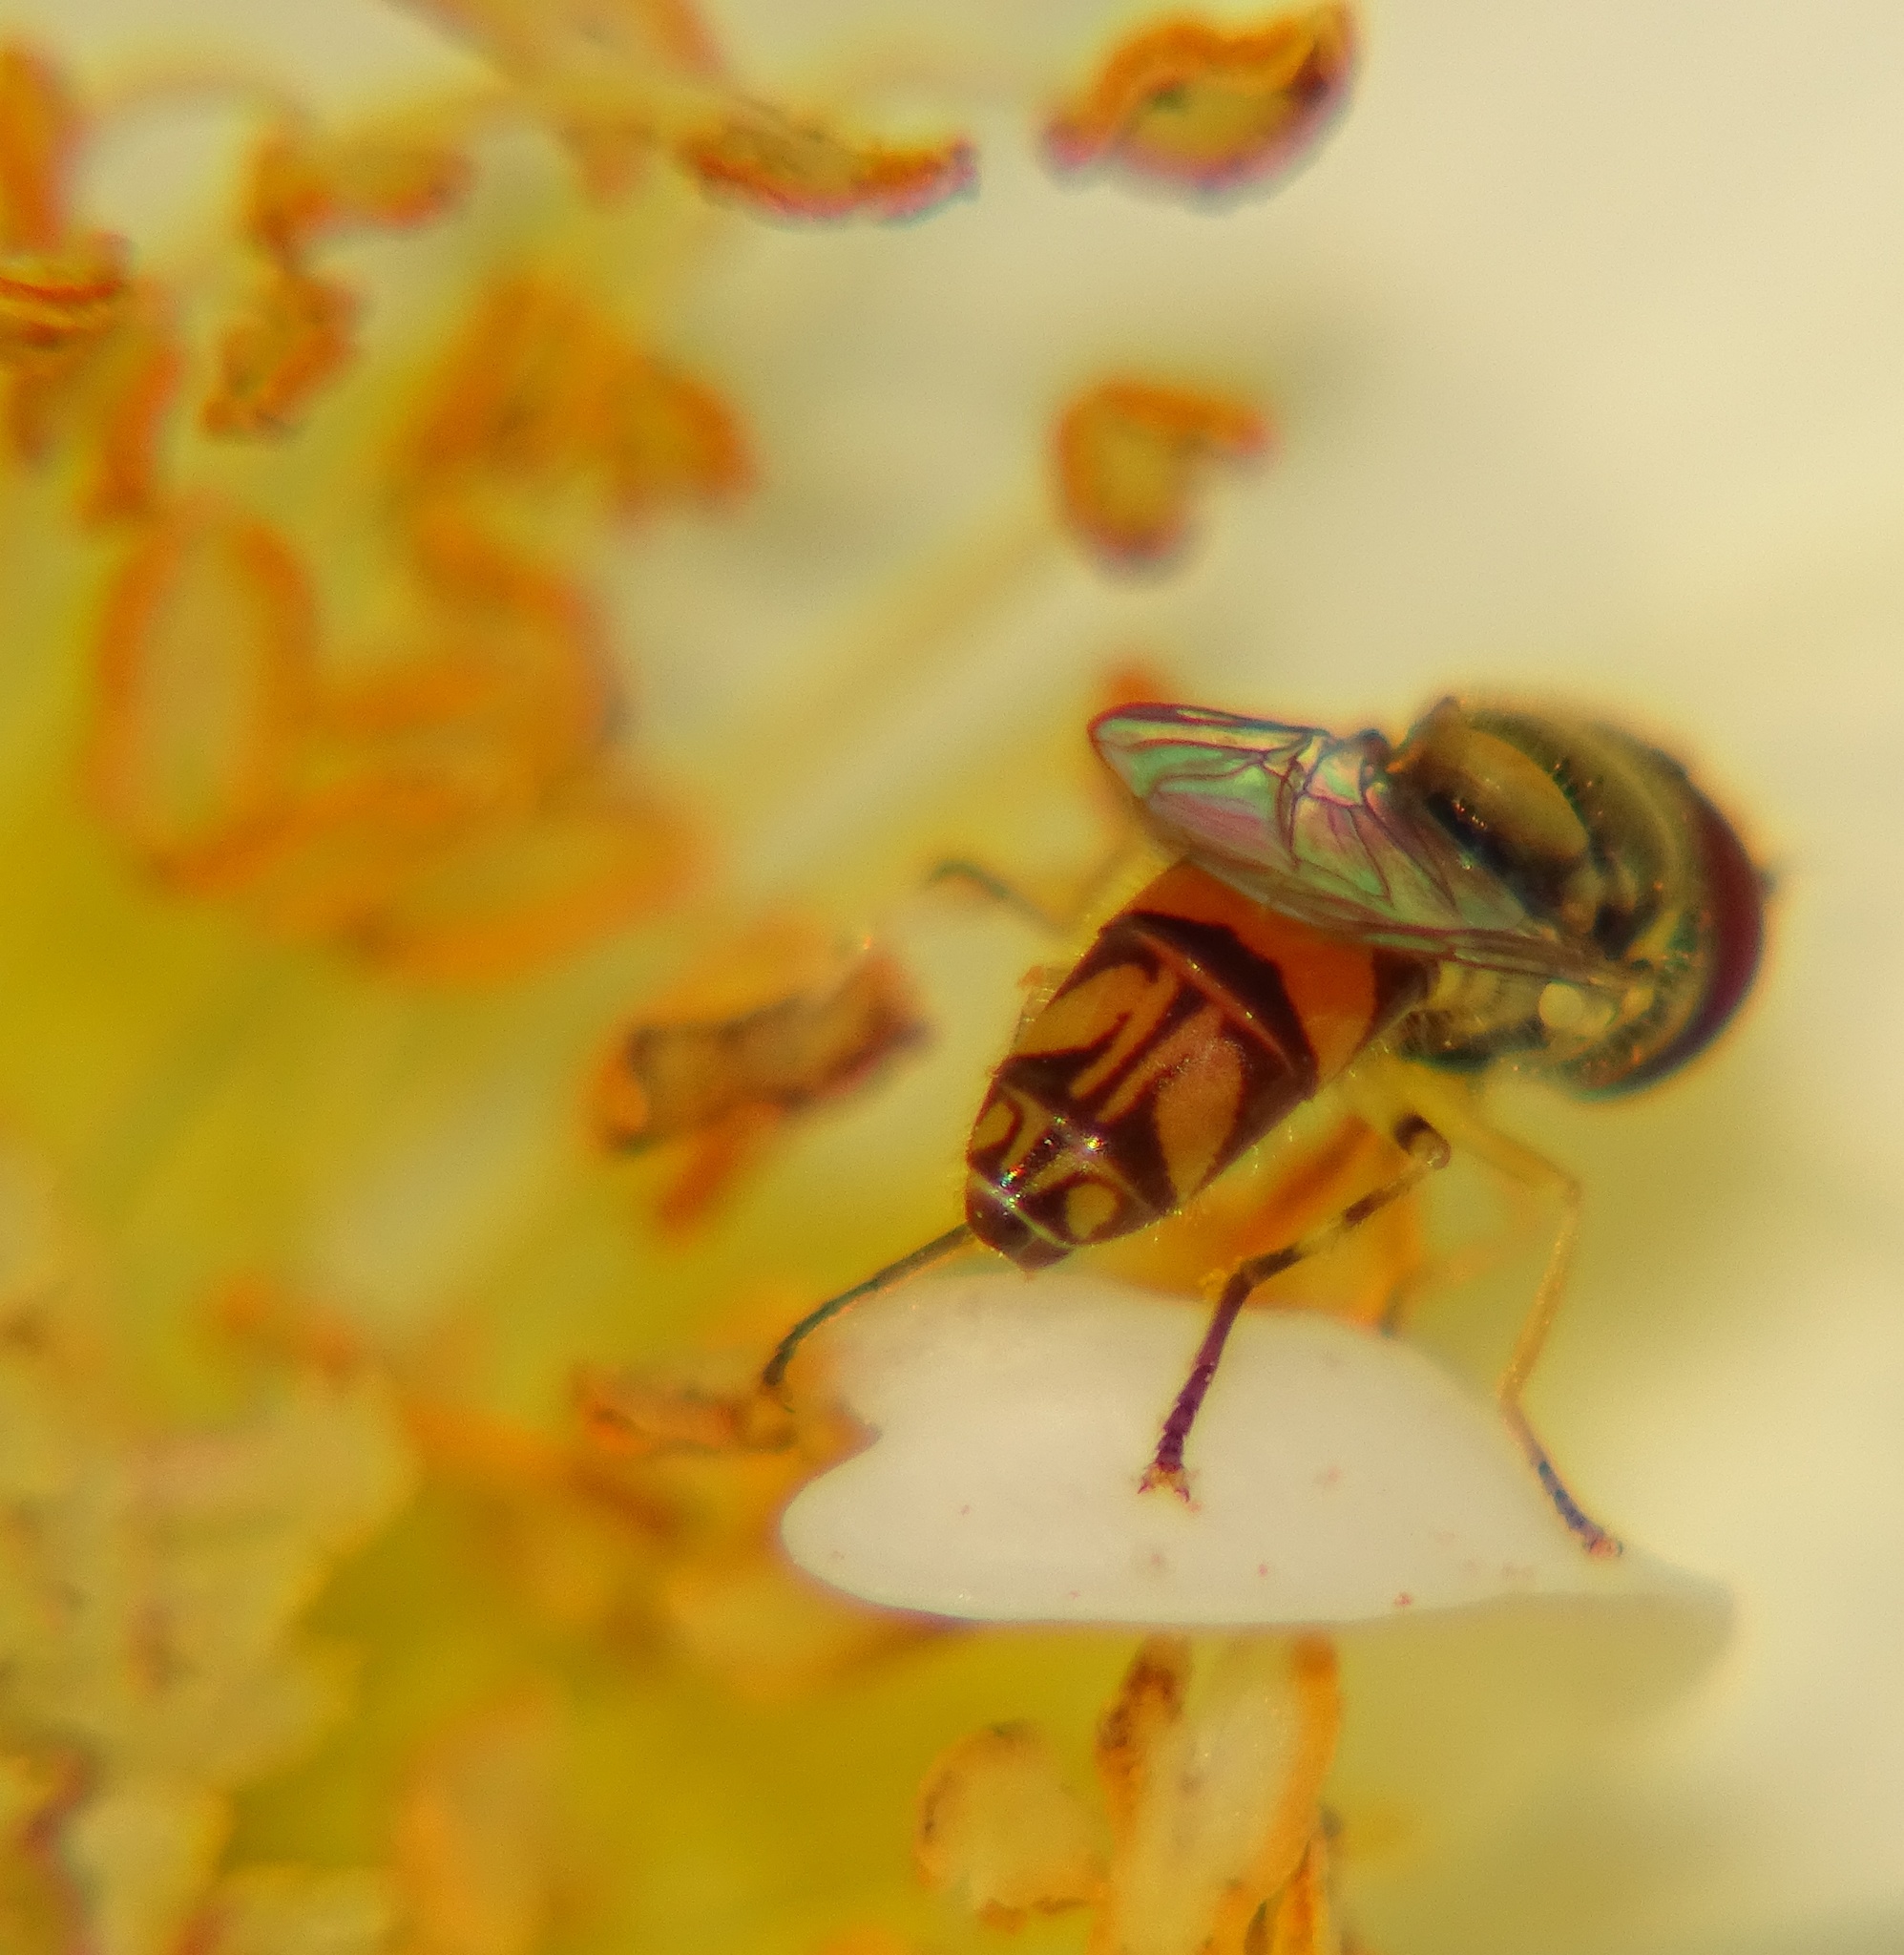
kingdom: Animalia
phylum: Arthropoda
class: Insecta
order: Diptera
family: Syrphidae
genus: Allograpta
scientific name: Allograpta exotica
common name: Syrphid fly
